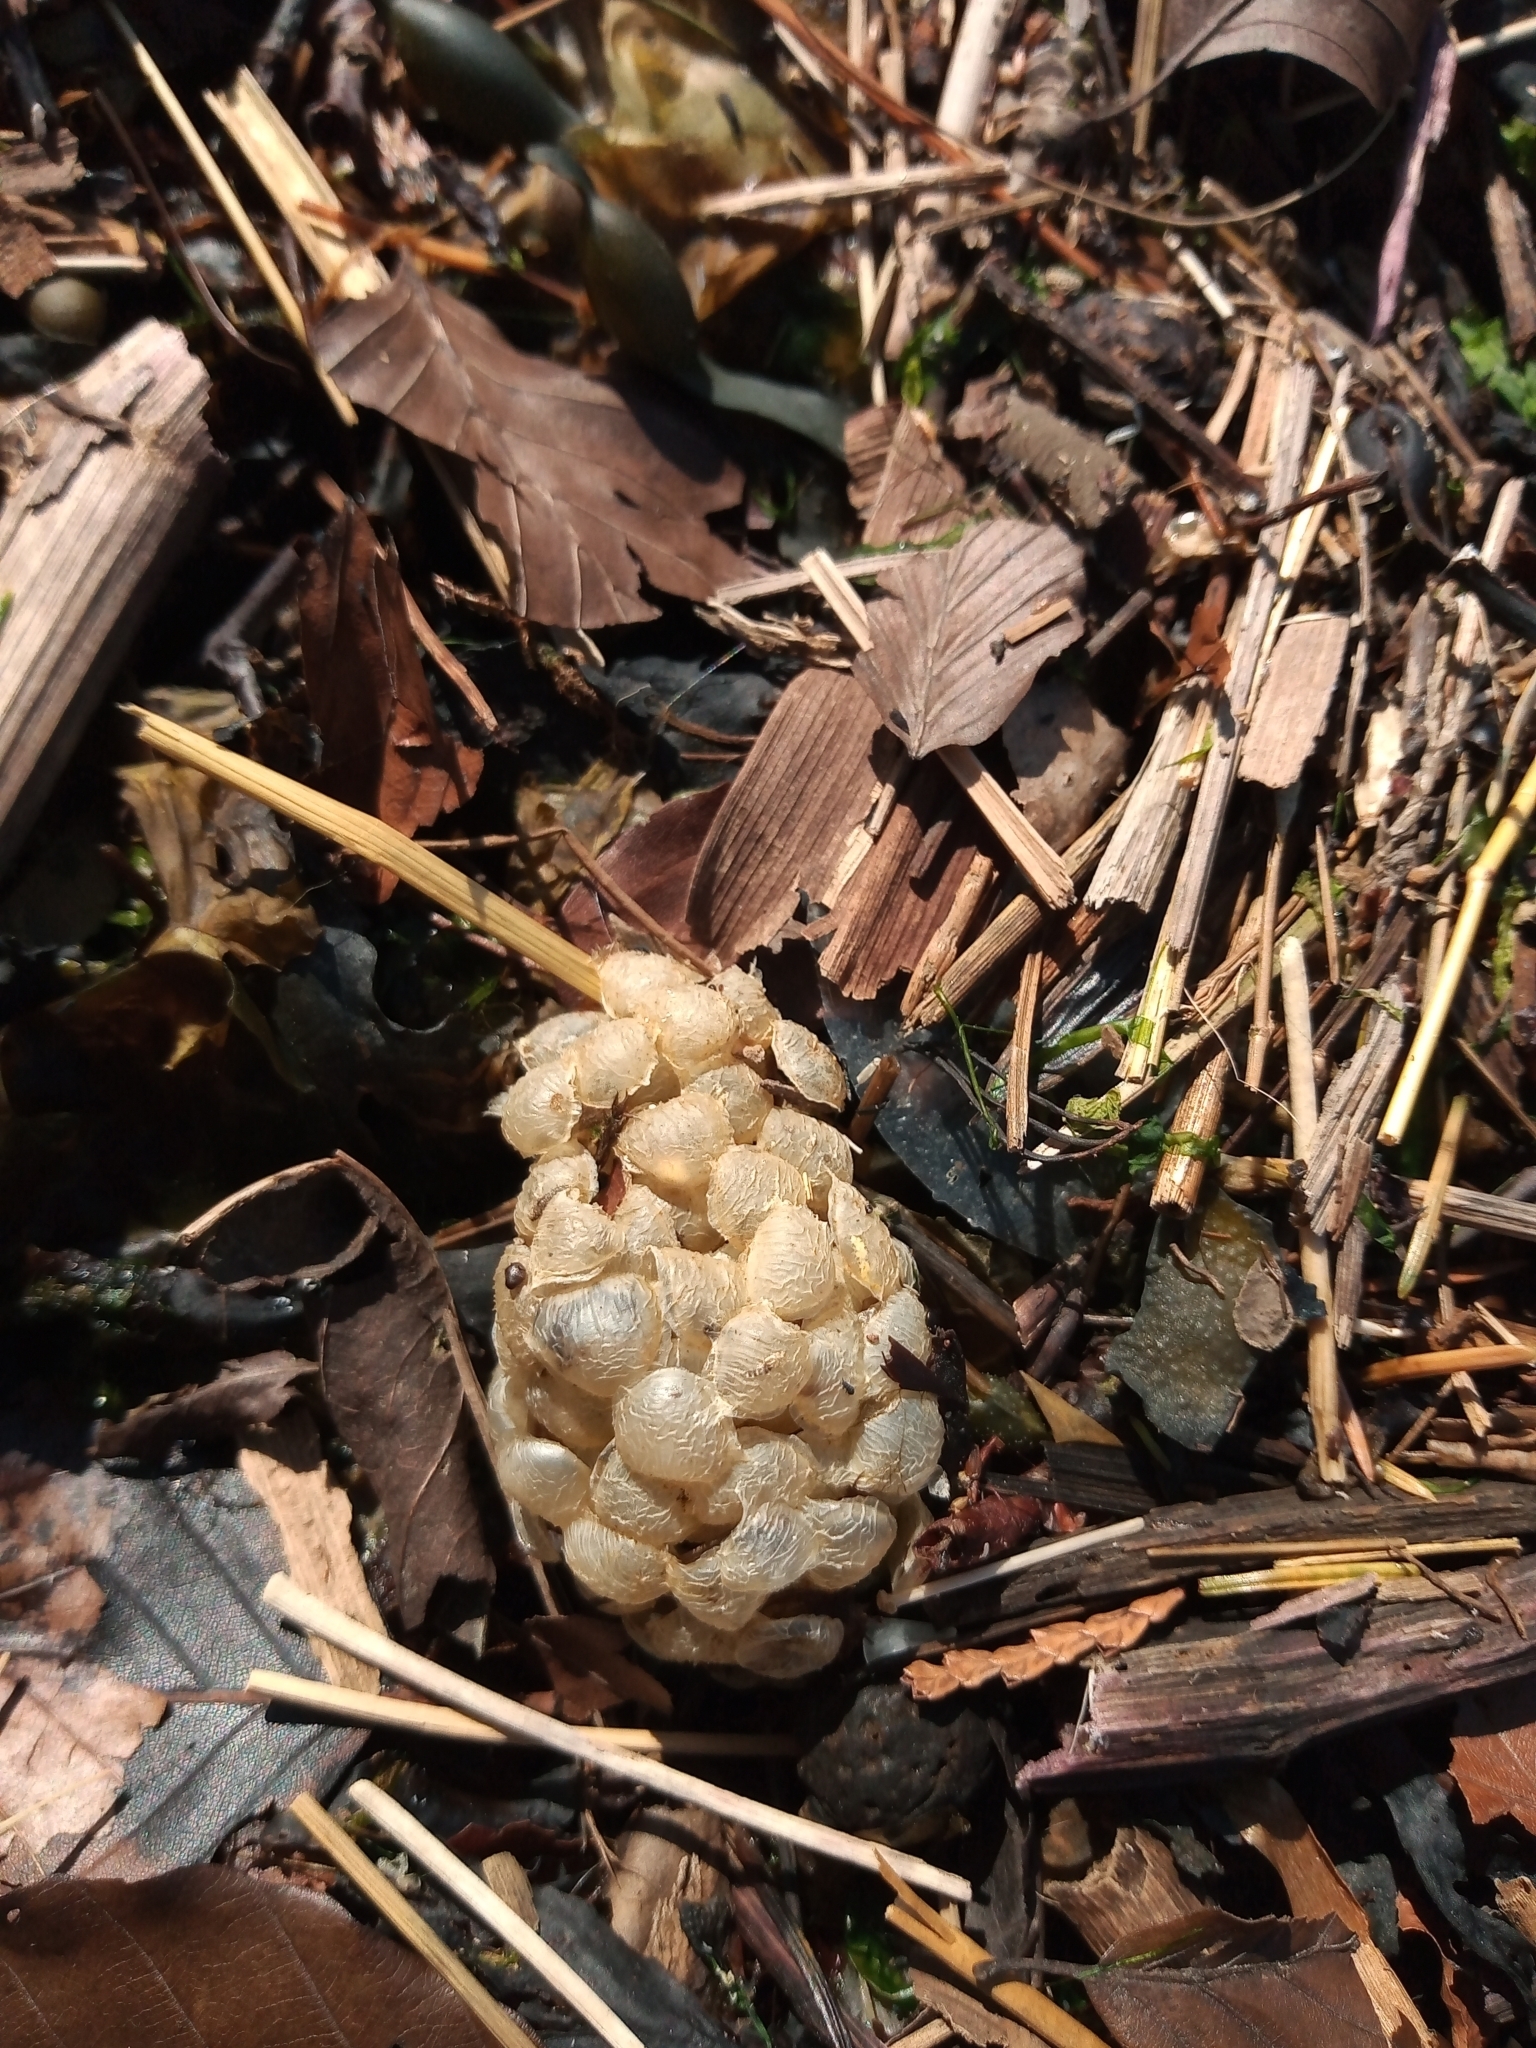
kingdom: Animalia
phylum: Mollusca
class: Gastropoda
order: Neogastropoda
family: Buccinidae
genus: Buccinum
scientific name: Buccinum undatum
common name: Common whelk
